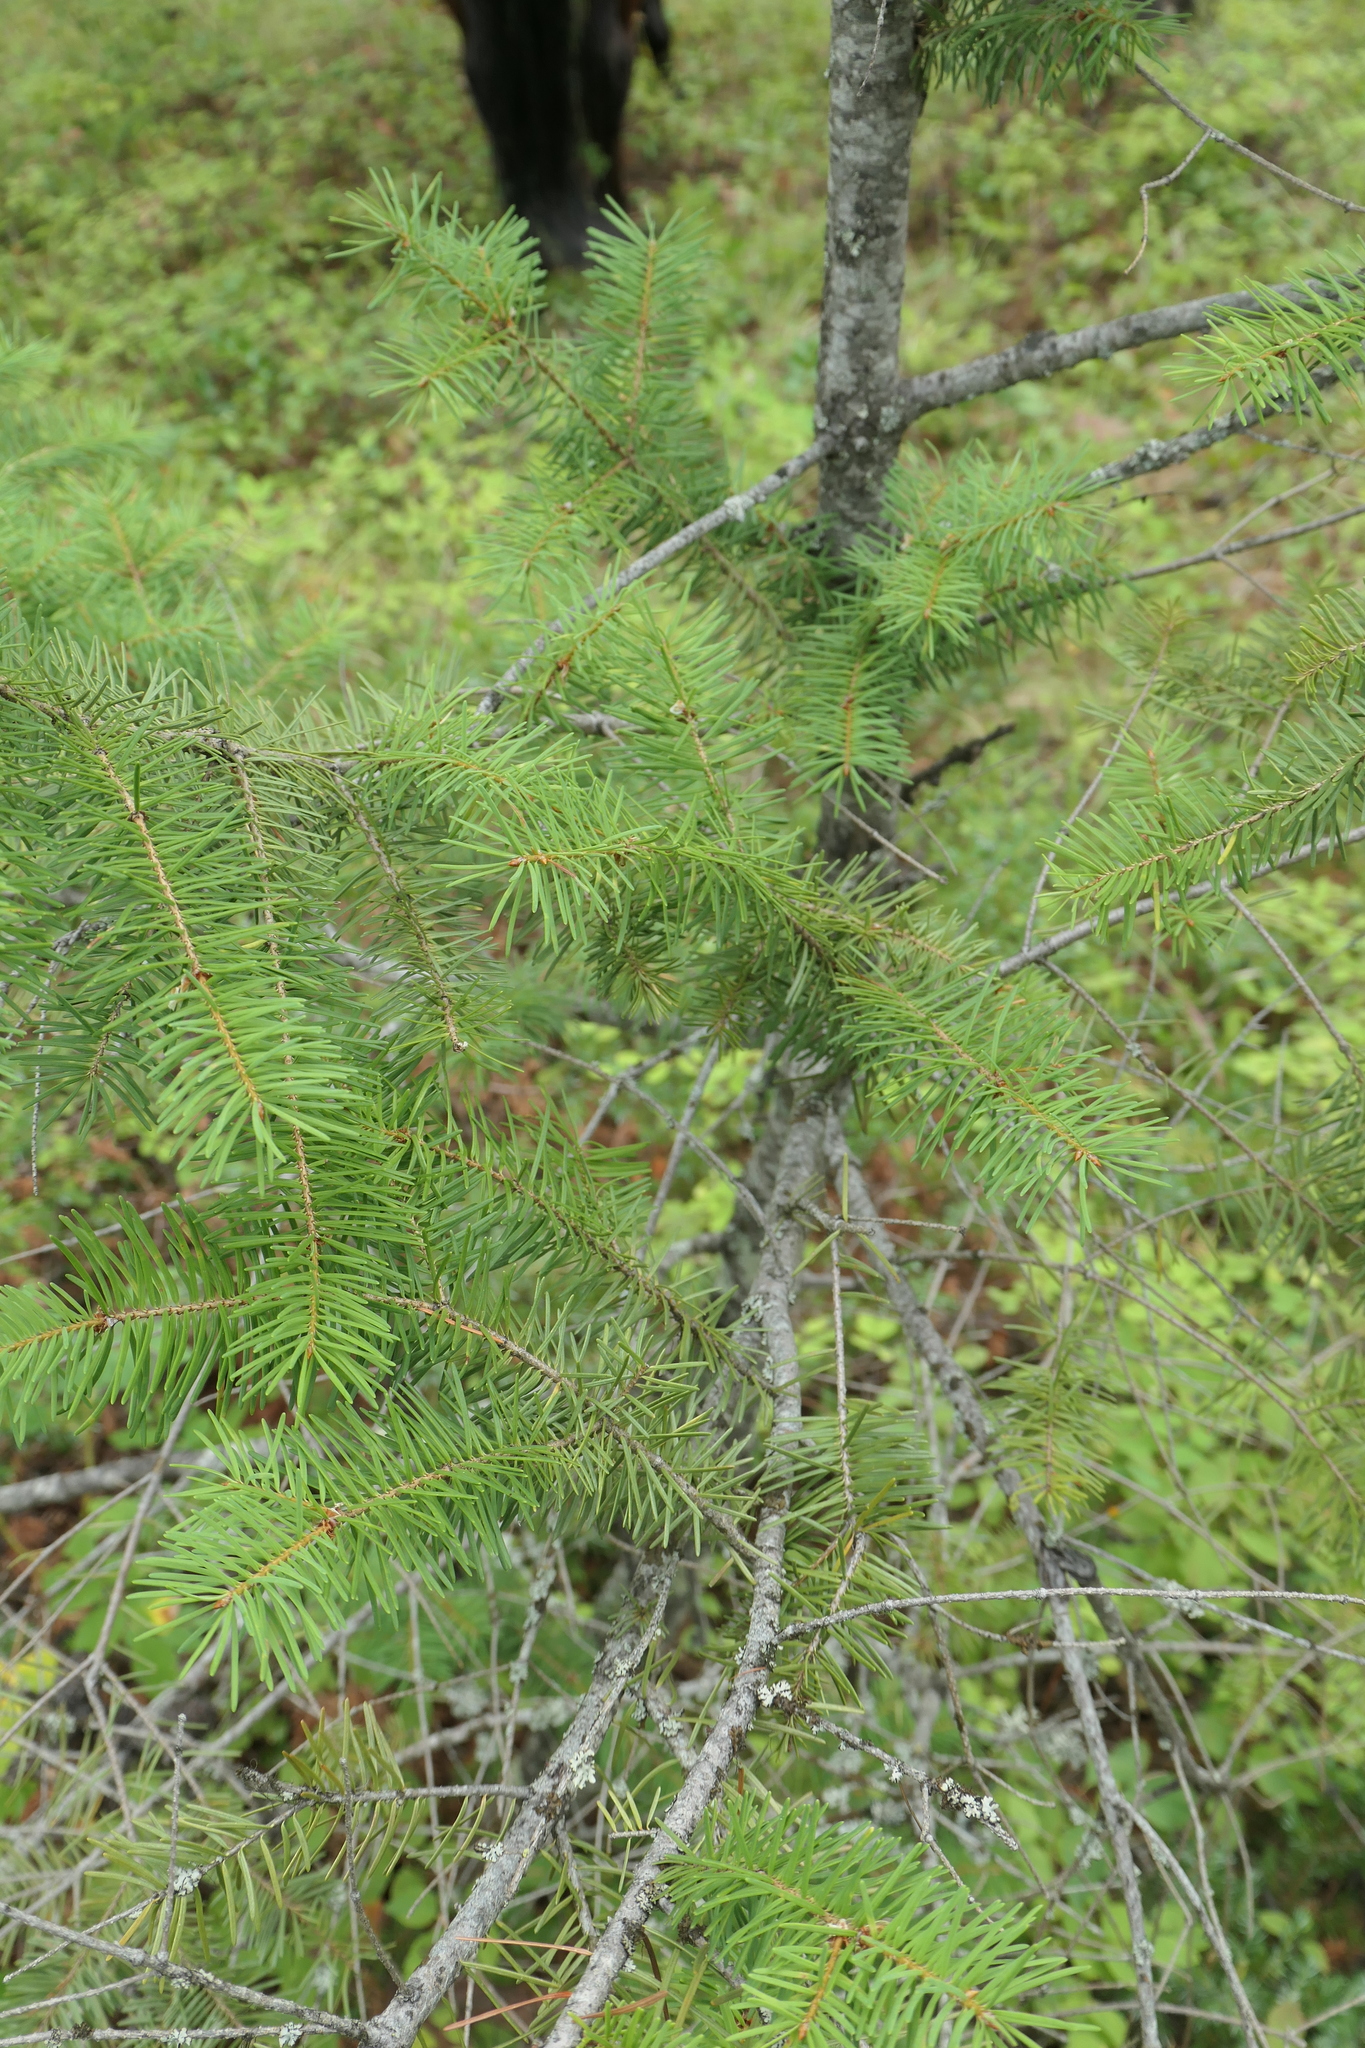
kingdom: Plantae
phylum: Tracheophyta
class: Pinopsida
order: Pinales
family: Pinaceae
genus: Pseudotsuga
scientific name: Pseudotsuga menziesii
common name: Douglas fir
